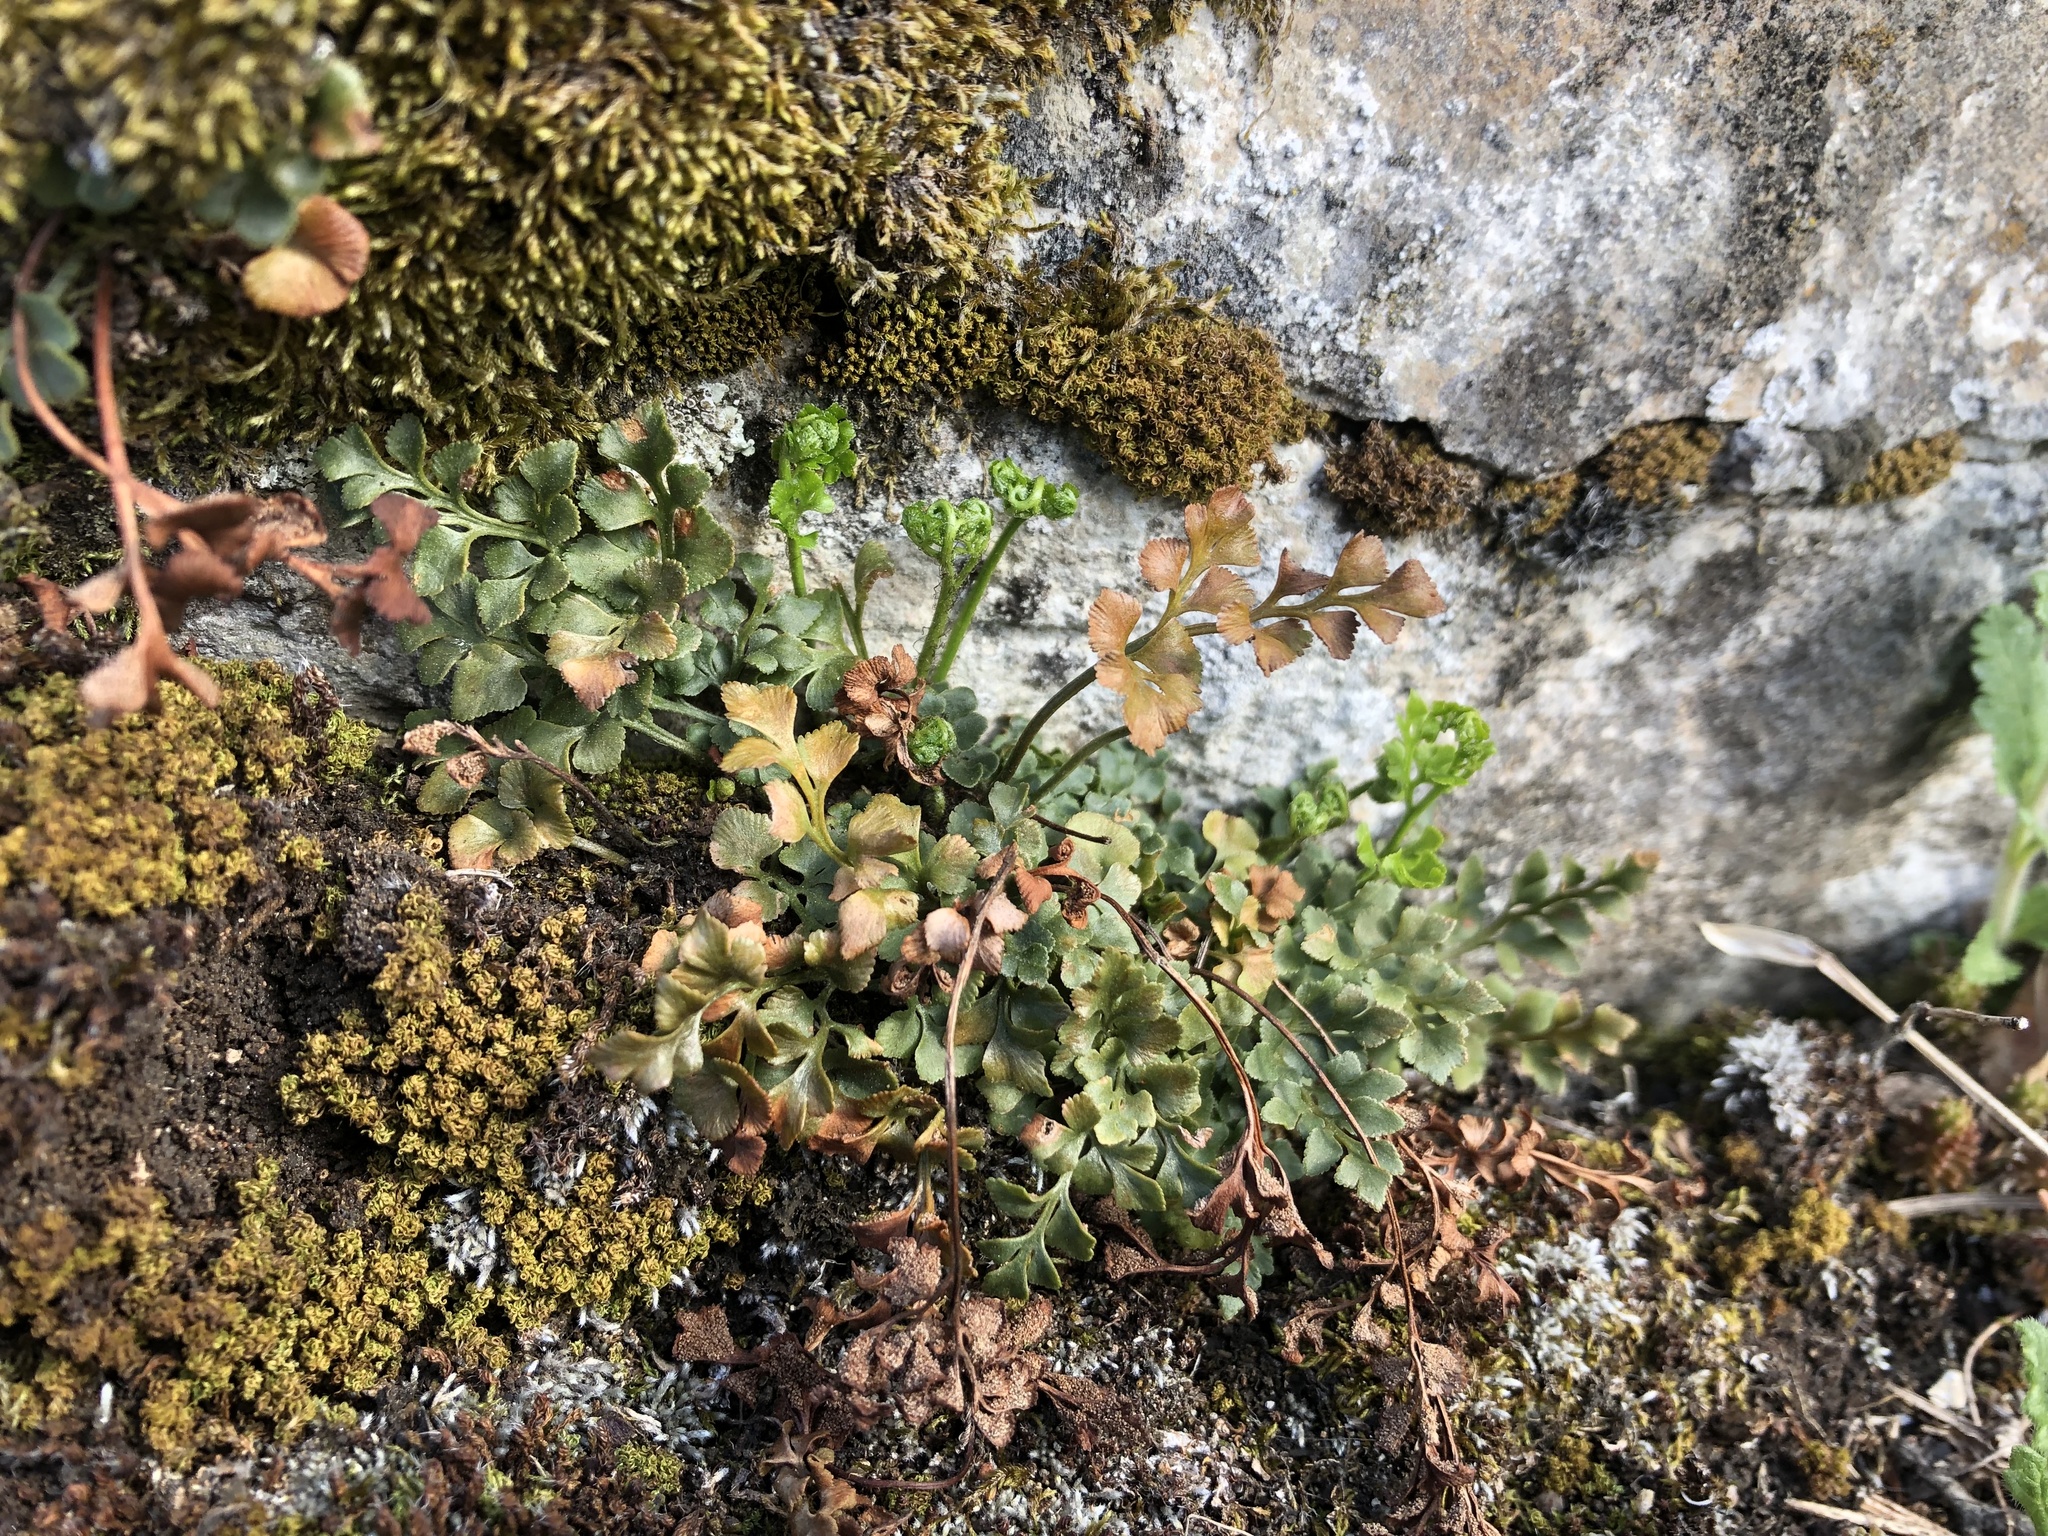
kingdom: Plantae
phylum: Tracheophyta
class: Polypodiopsida
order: Polypodiales
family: Aspleniaceae
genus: Asplenium
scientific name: Asplenium ruta-muraria
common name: Wall-rue
